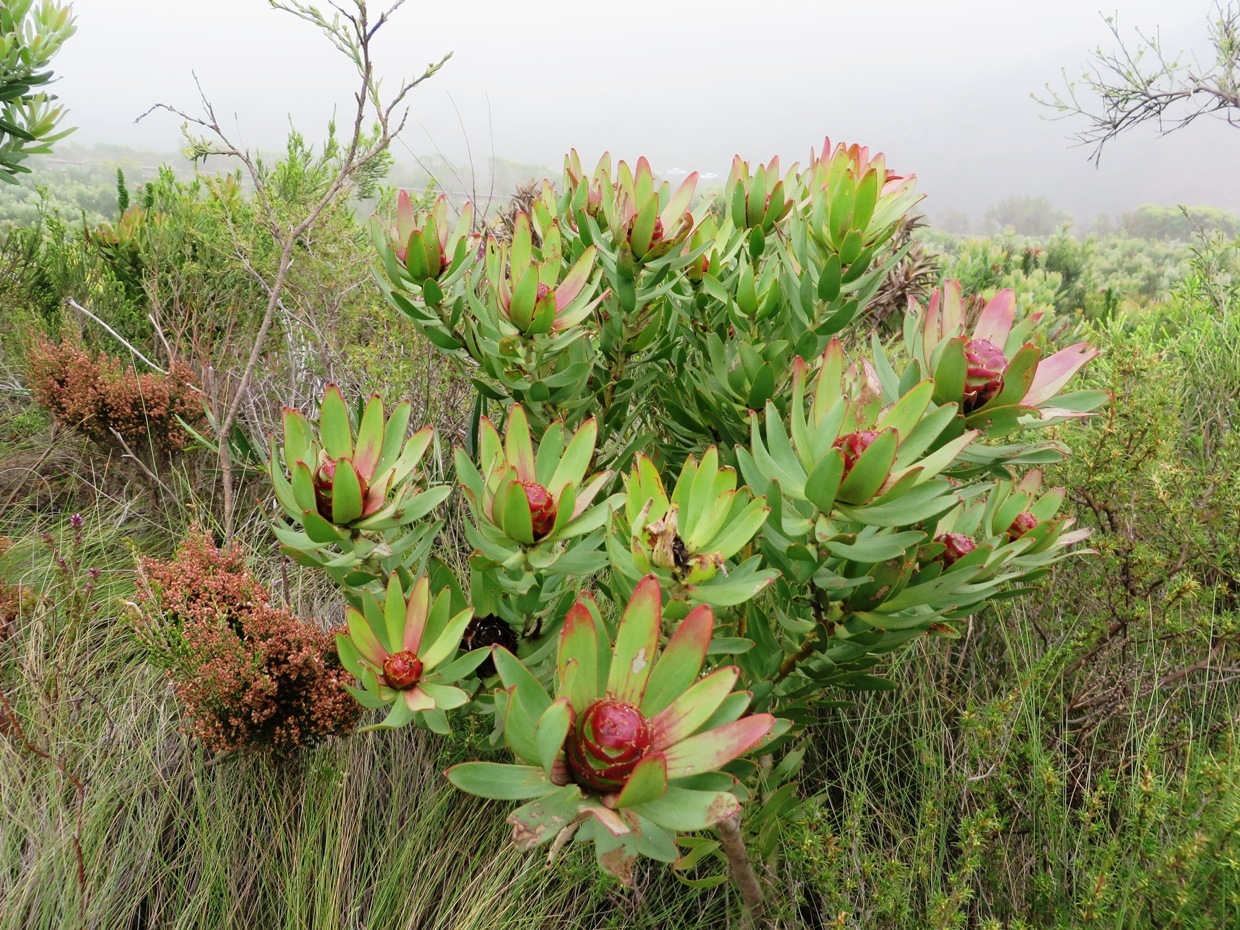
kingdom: Plantae
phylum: Tracheophyta
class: Magnoliopsida
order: Proteales
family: Proteaceae
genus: Leucadendron
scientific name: Leucadendron sessile
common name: Western sunbush
